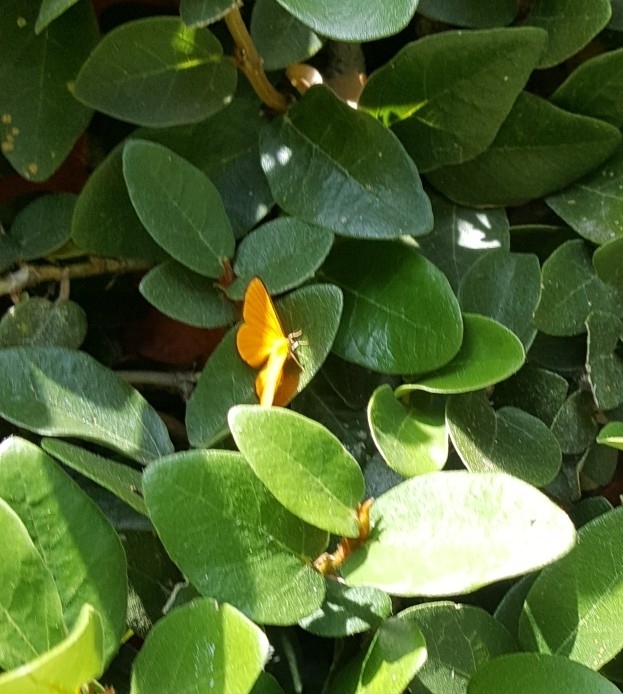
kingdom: Animalia
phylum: Arthropoda
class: Insecta
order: Lepidoptera
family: Lycaenidae
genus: Mesene
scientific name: Mesene croceella
